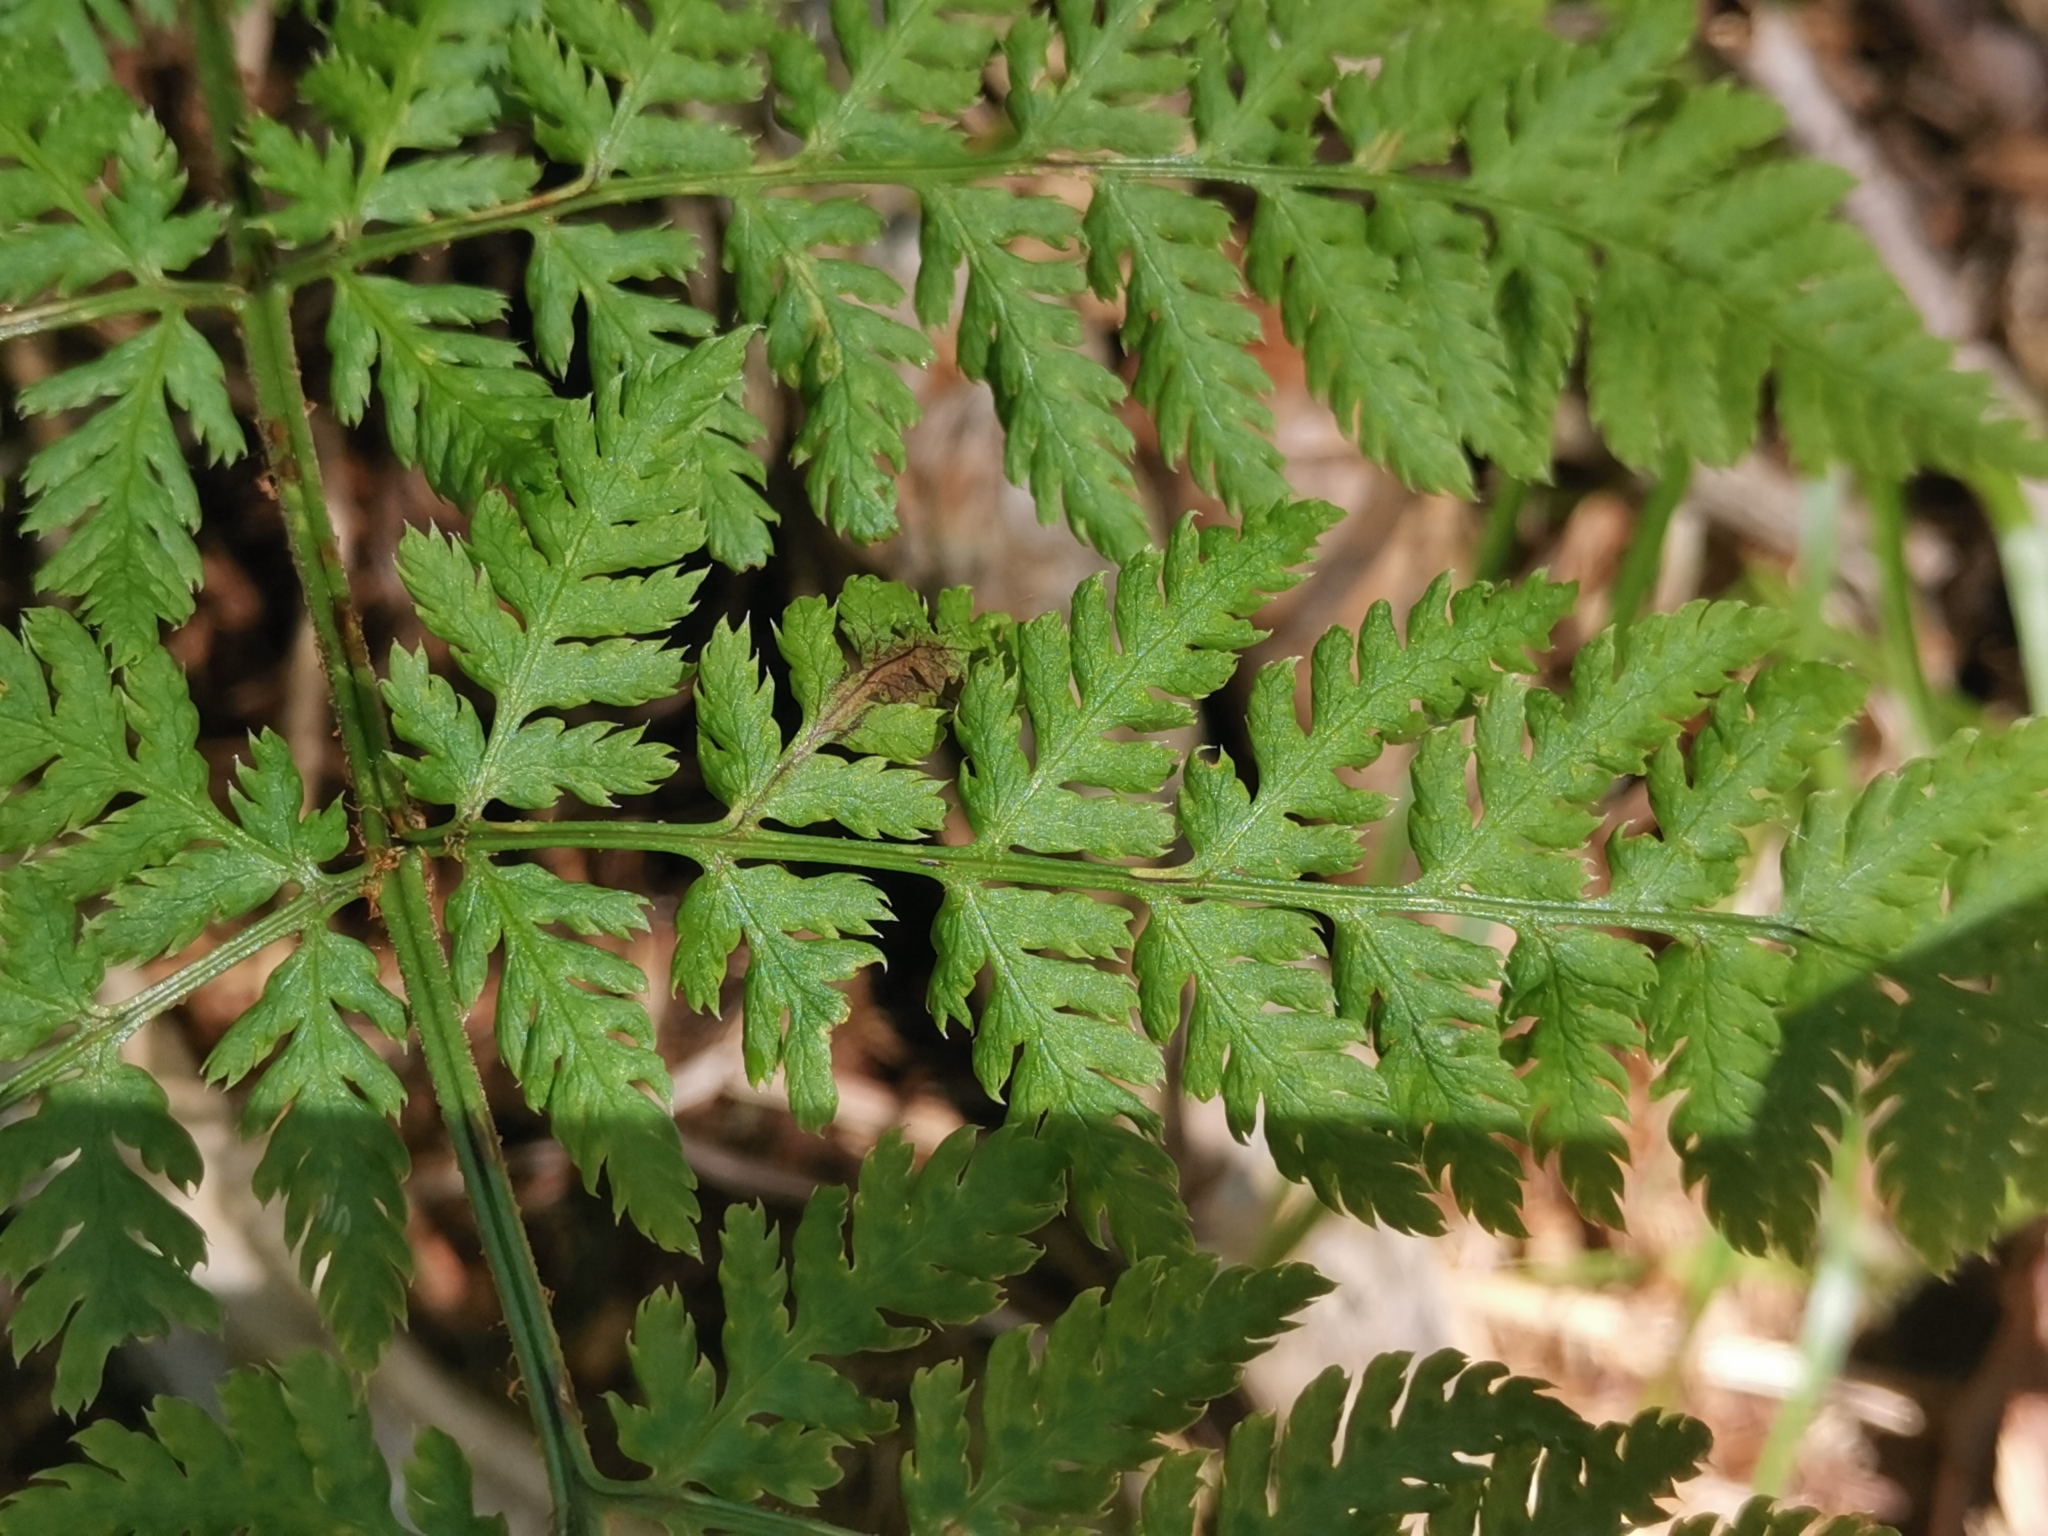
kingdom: Plantae
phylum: Tracheophyta
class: Polypodiopsida
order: Polypodiales
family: Dryopteridaceae
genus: Dryopteris
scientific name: Dryopteris carthusiana
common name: Narrow buckler-fern
